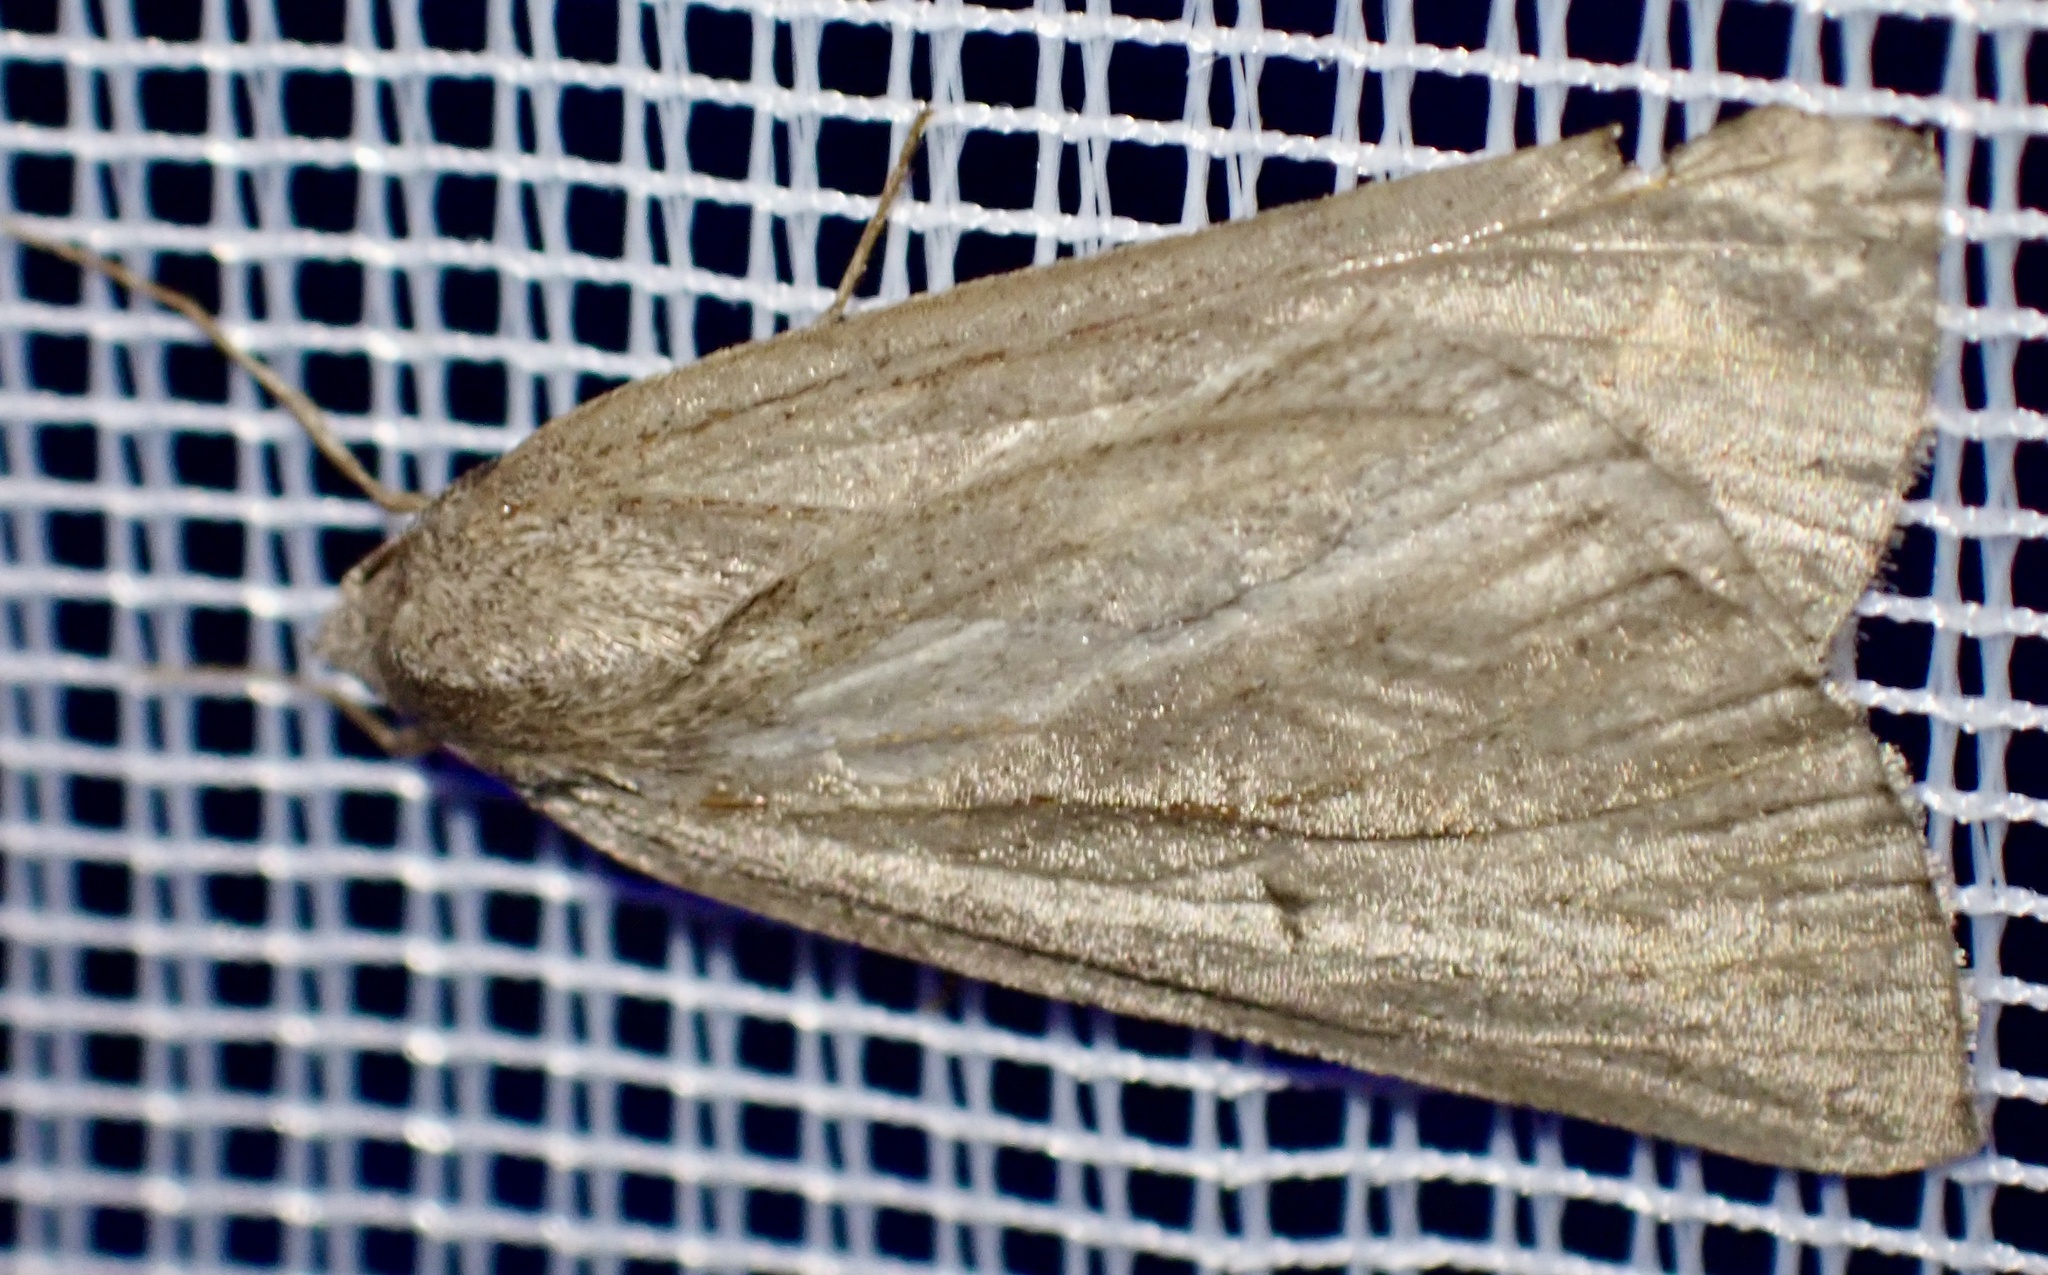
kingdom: Animalia
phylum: Arthropoda
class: Insecta
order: Lepidoptera
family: Geometridae
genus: Chemerina
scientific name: Chemerina caliginearia
